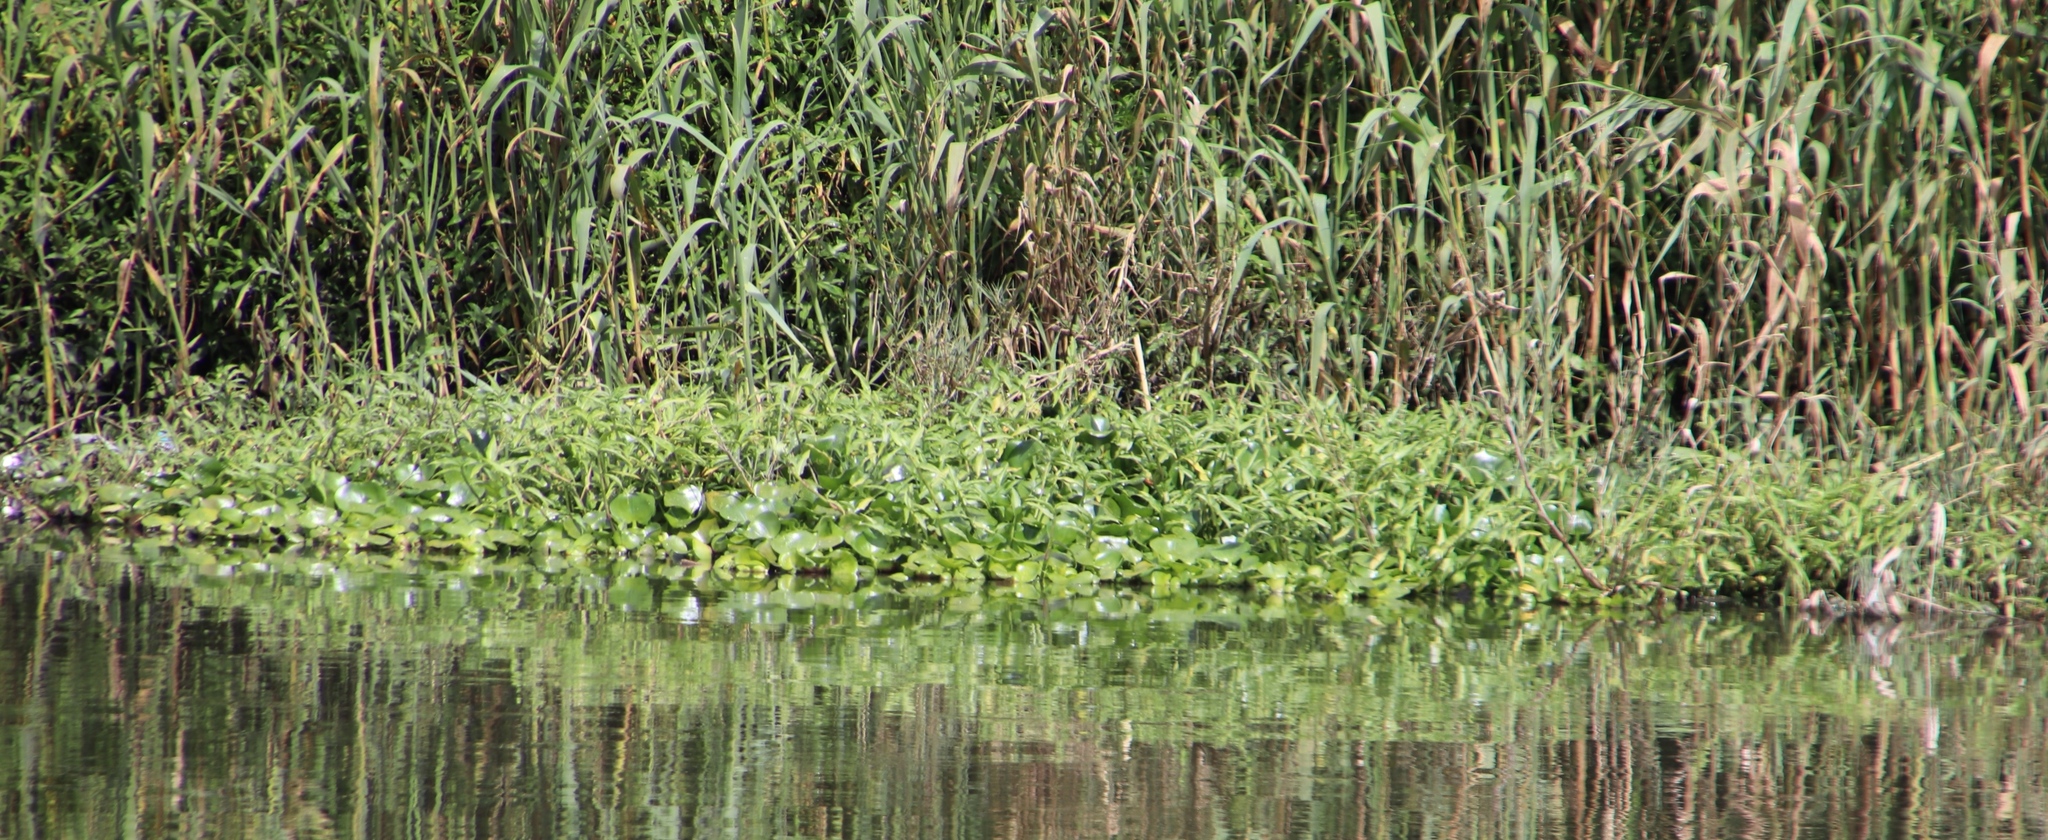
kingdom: Plantae
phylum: Tracheophyta
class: Liliopsida
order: Commelinales
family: Pontederiaceae
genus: Pontederia
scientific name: Pontederia crassipes
